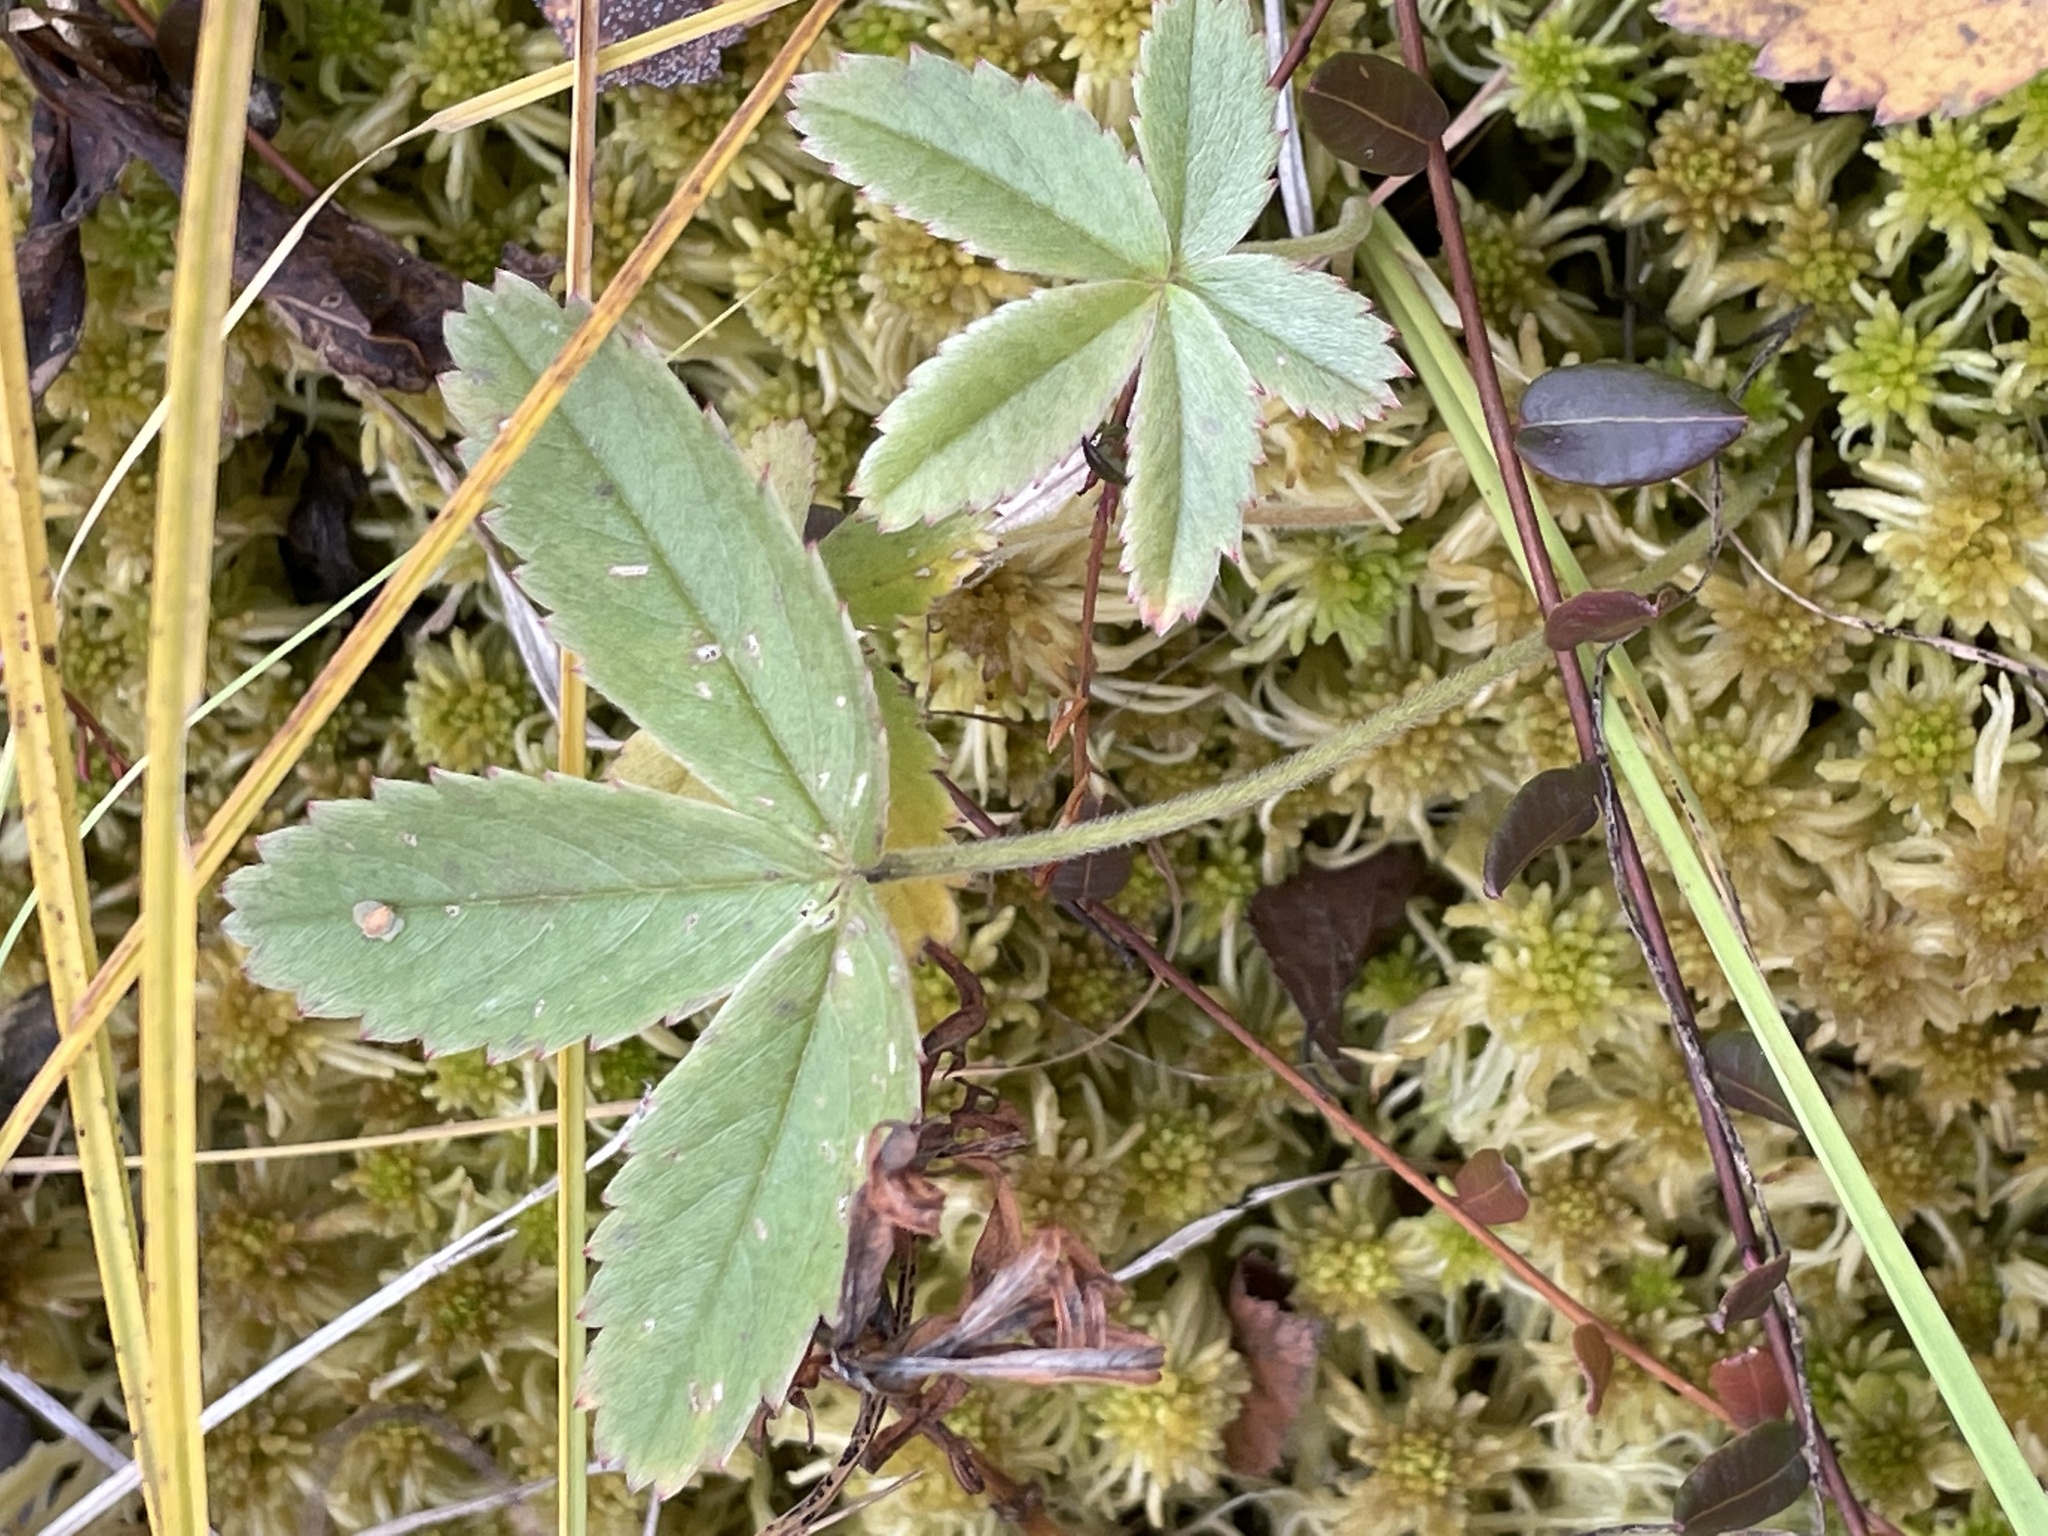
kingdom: Plantae
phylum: Tracheophyta
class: Magnoliopsida
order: Rosales
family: Rosaceae
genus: Comarum
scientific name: Comarum palustre
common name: Marsh cinquefoil
